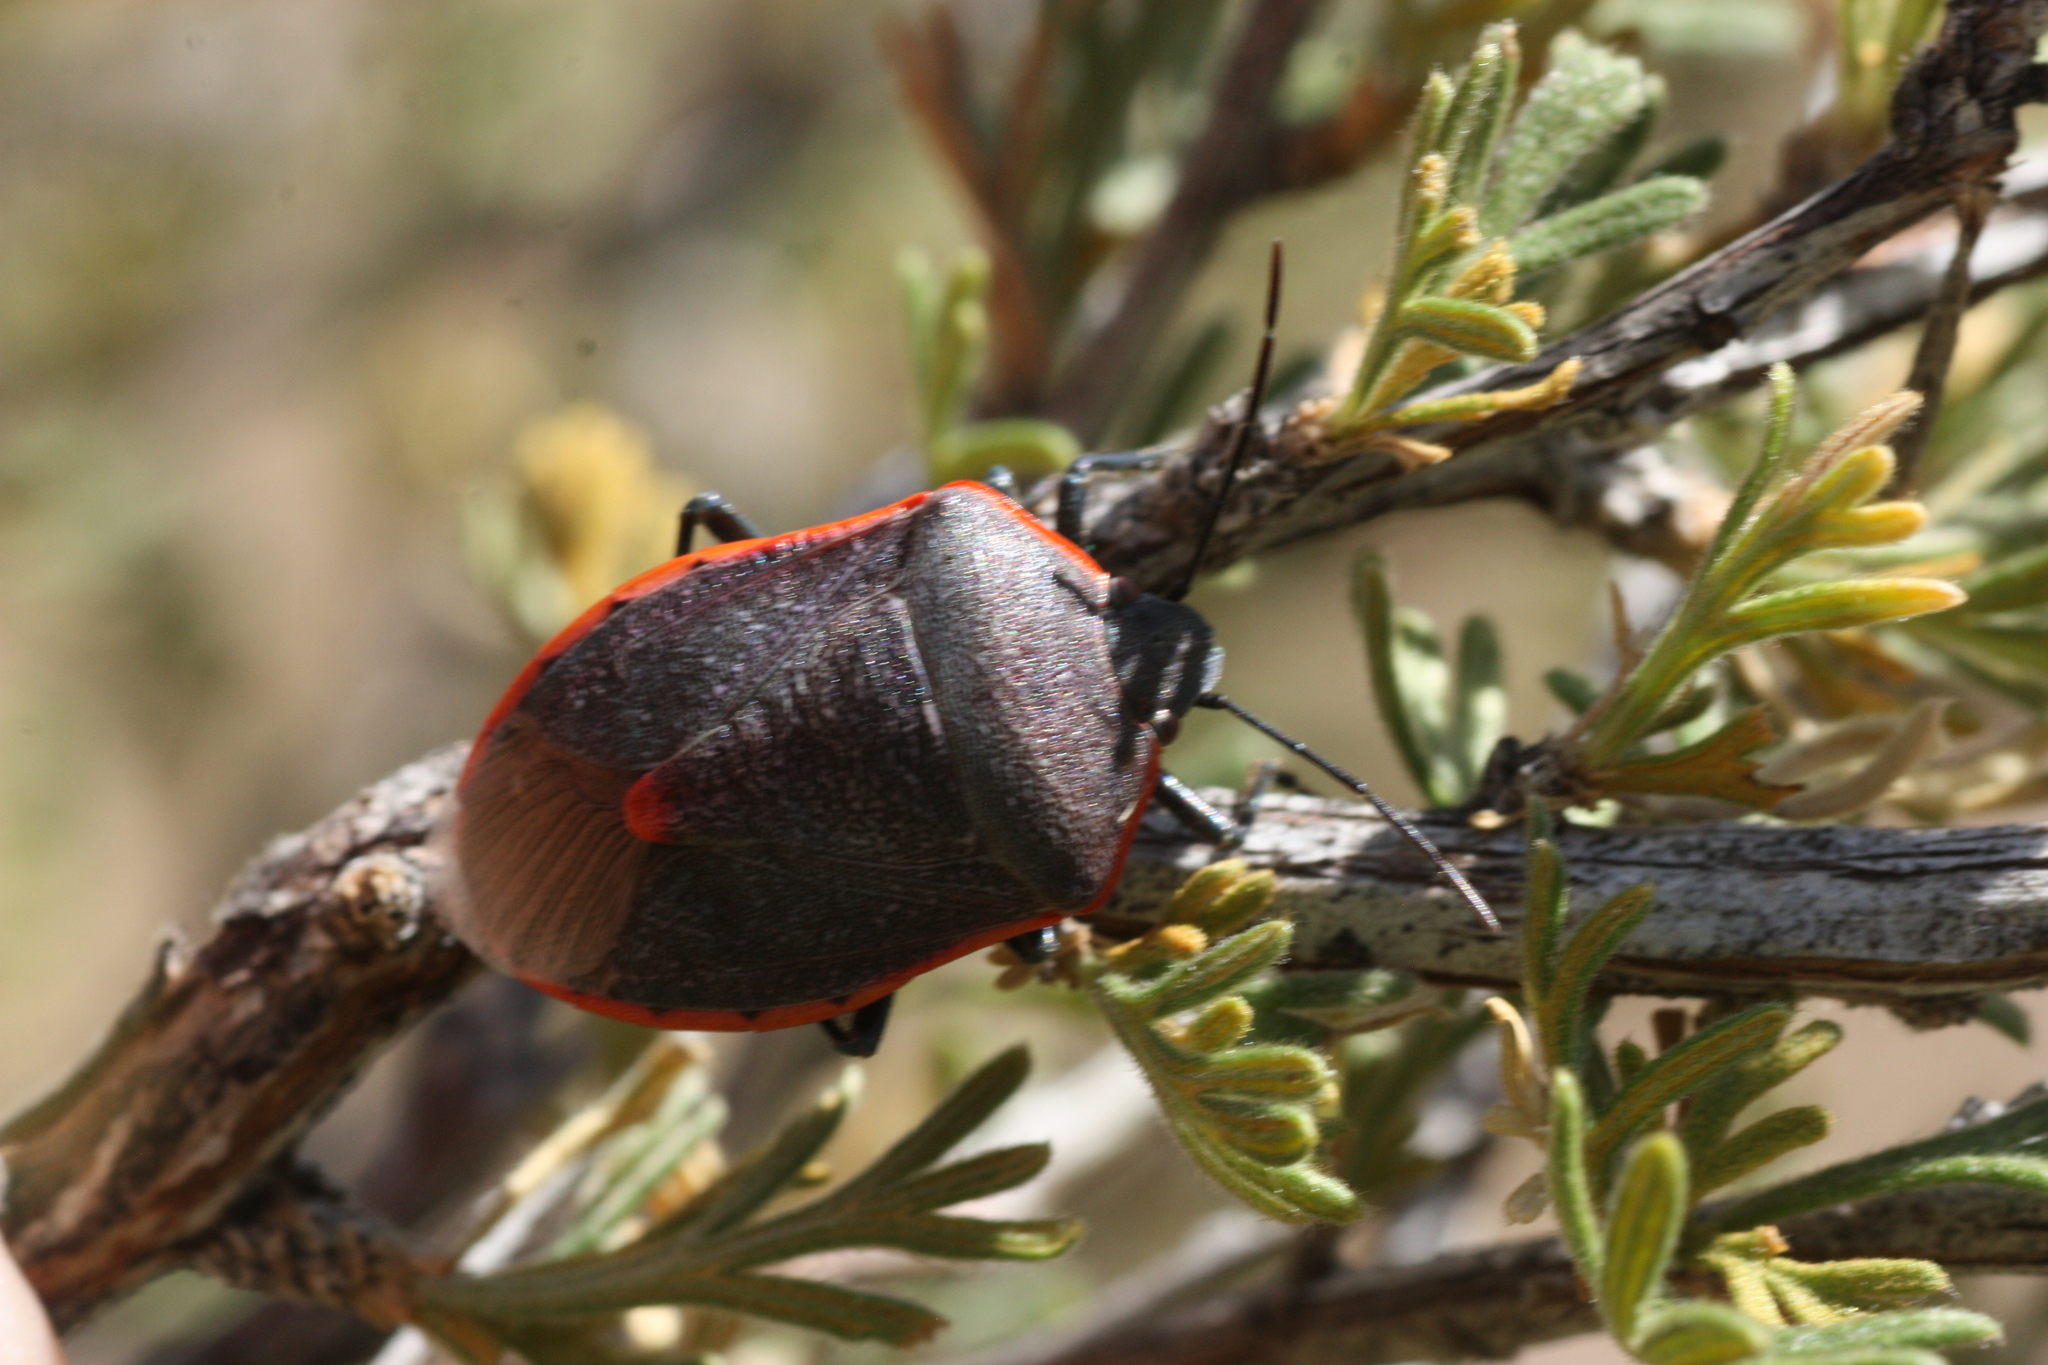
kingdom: Animalia
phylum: Arthropoda
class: Insecta
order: Hemiptera
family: Pentatomidae
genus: Chlorochroa
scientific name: Chlorochroa ligata
